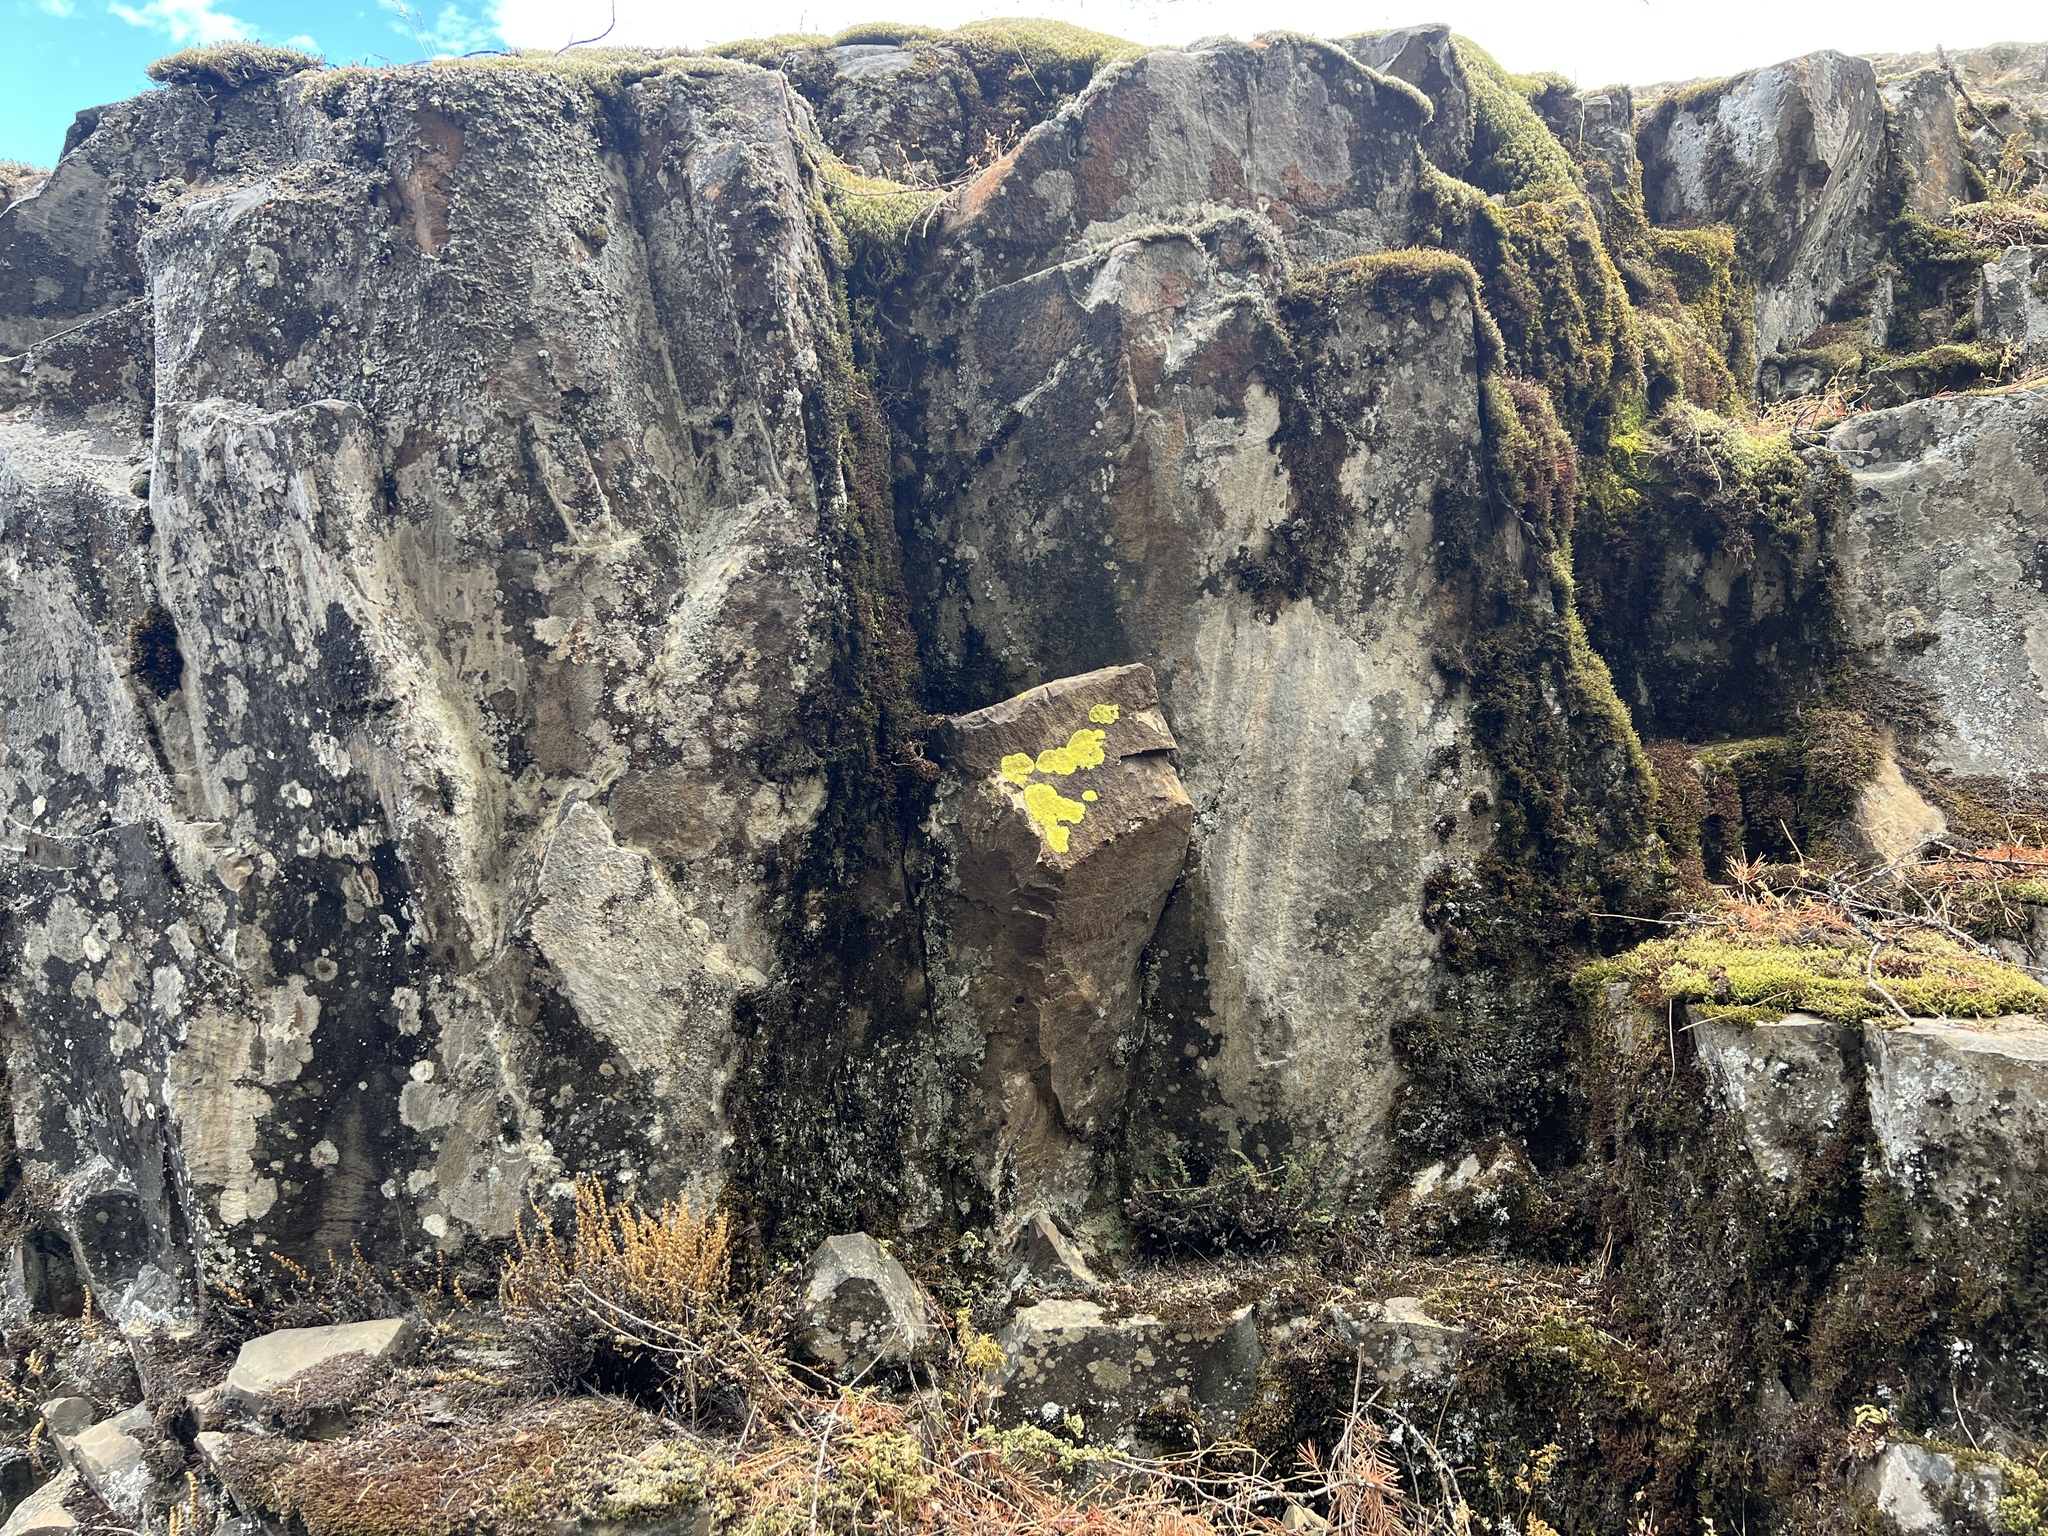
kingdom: Plantae
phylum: Tracheophyta
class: Polypodiopsida
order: Polypodiales
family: Pteridaceae
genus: Myriopteris
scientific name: Myriopteris gracillima
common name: Lace fern
